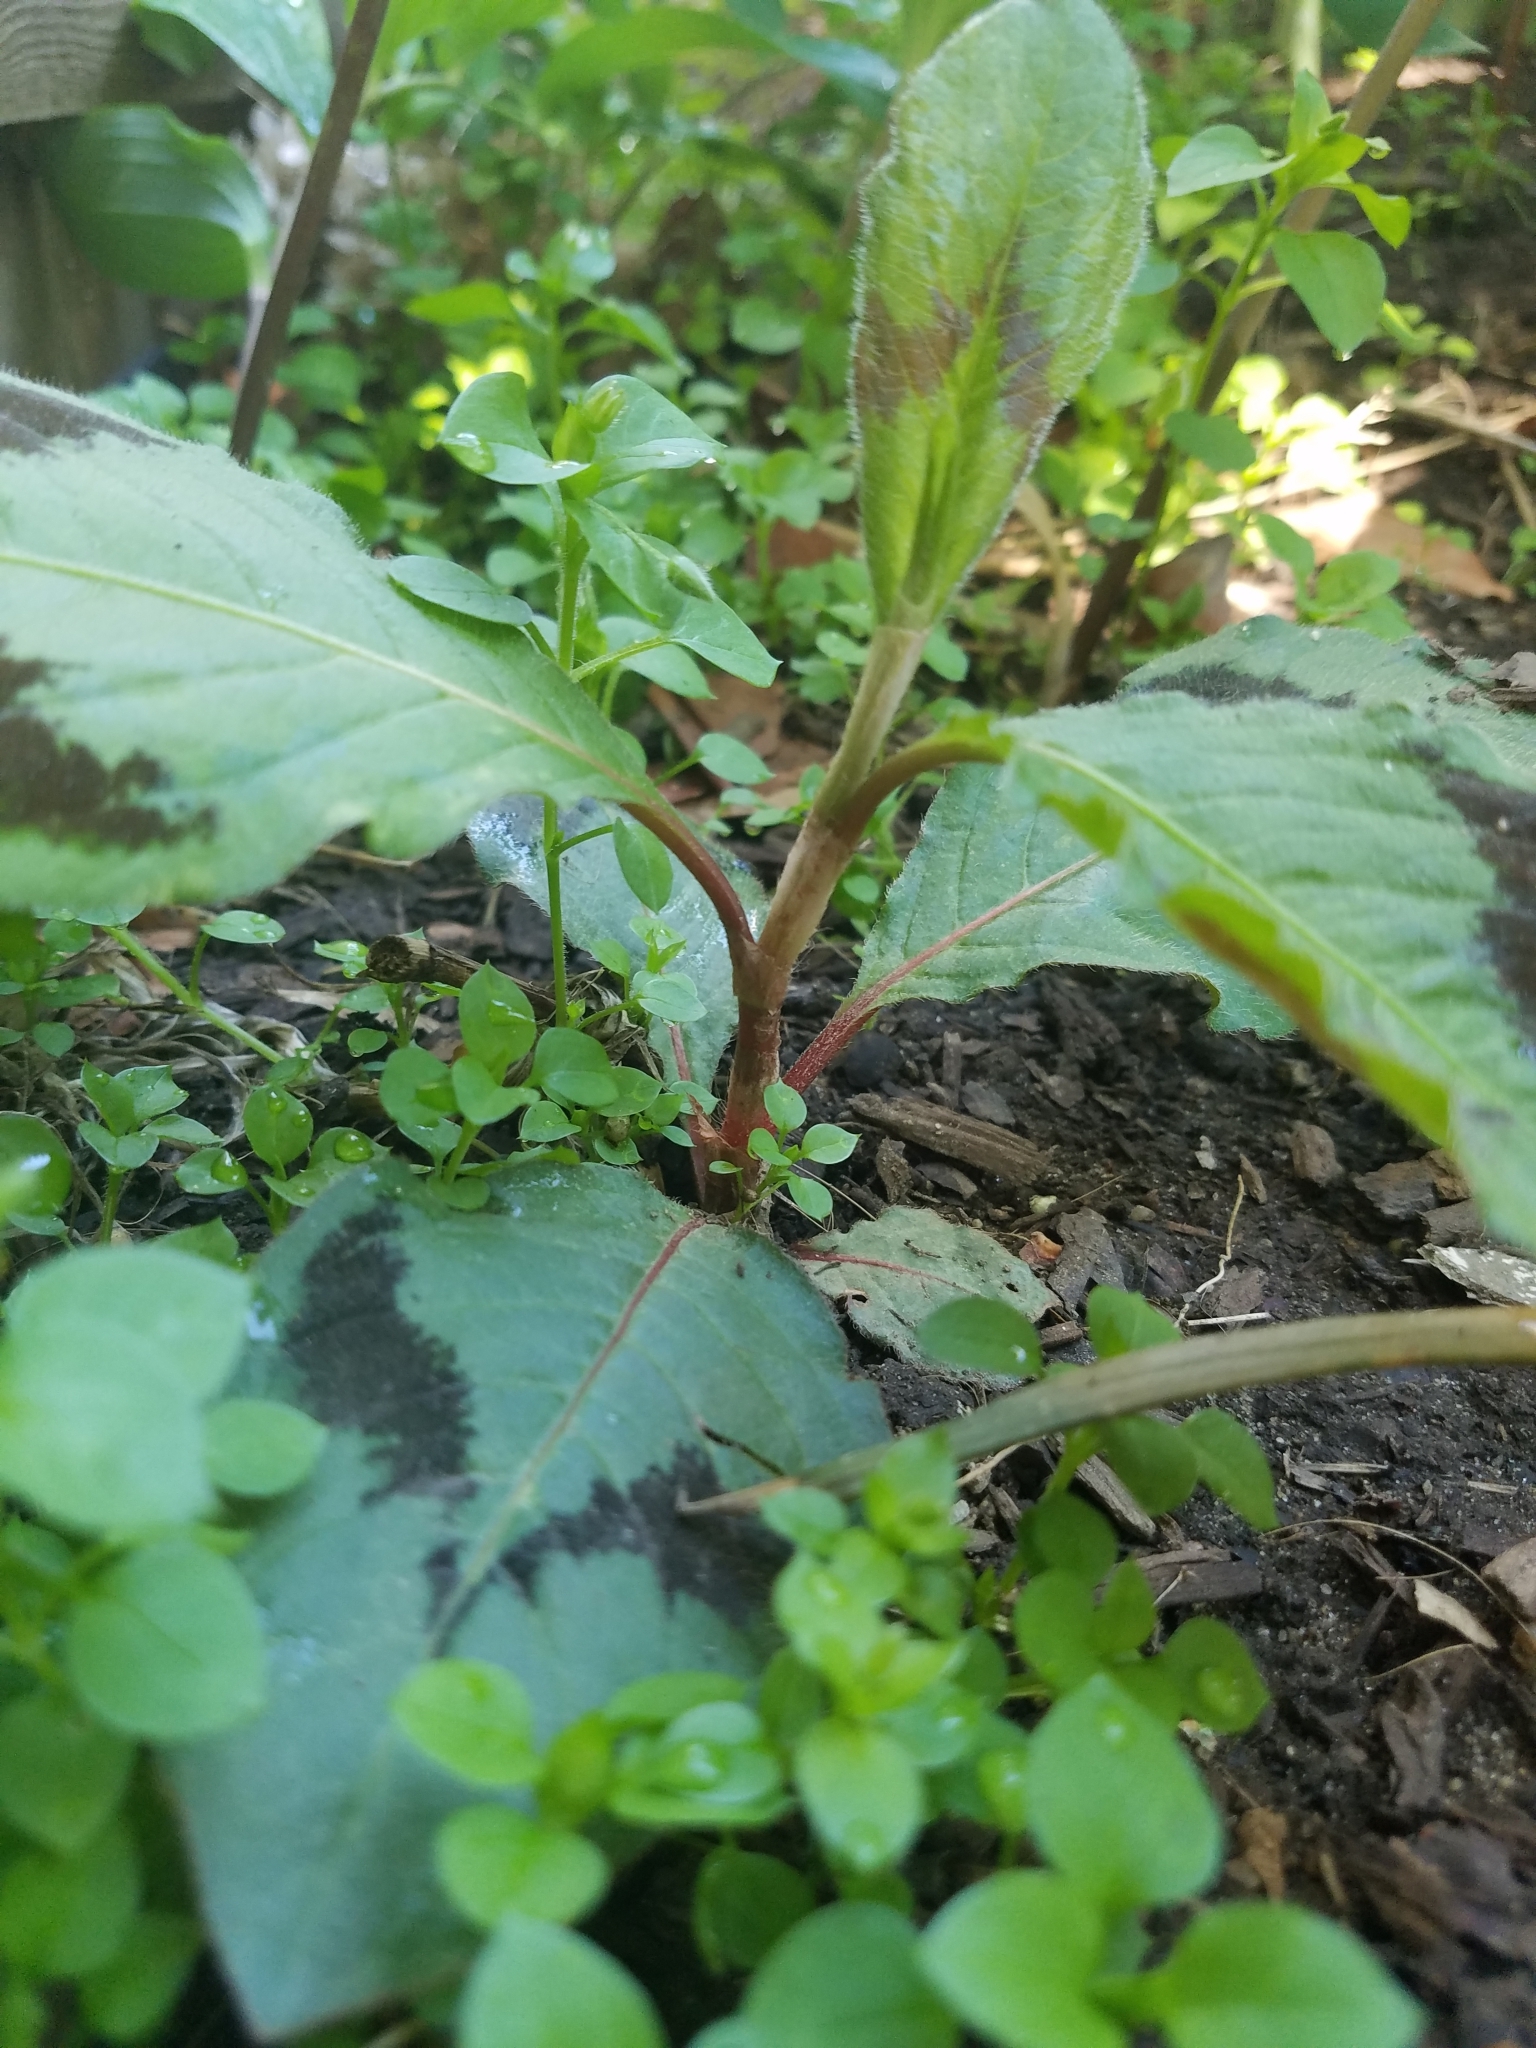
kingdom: Plantae
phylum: Tracheophyta
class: Magnoliopsida
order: Caryophyllales
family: Polygonaceae
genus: Persicaria
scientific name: Persicaria filiformis
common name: Asian jumpseed
